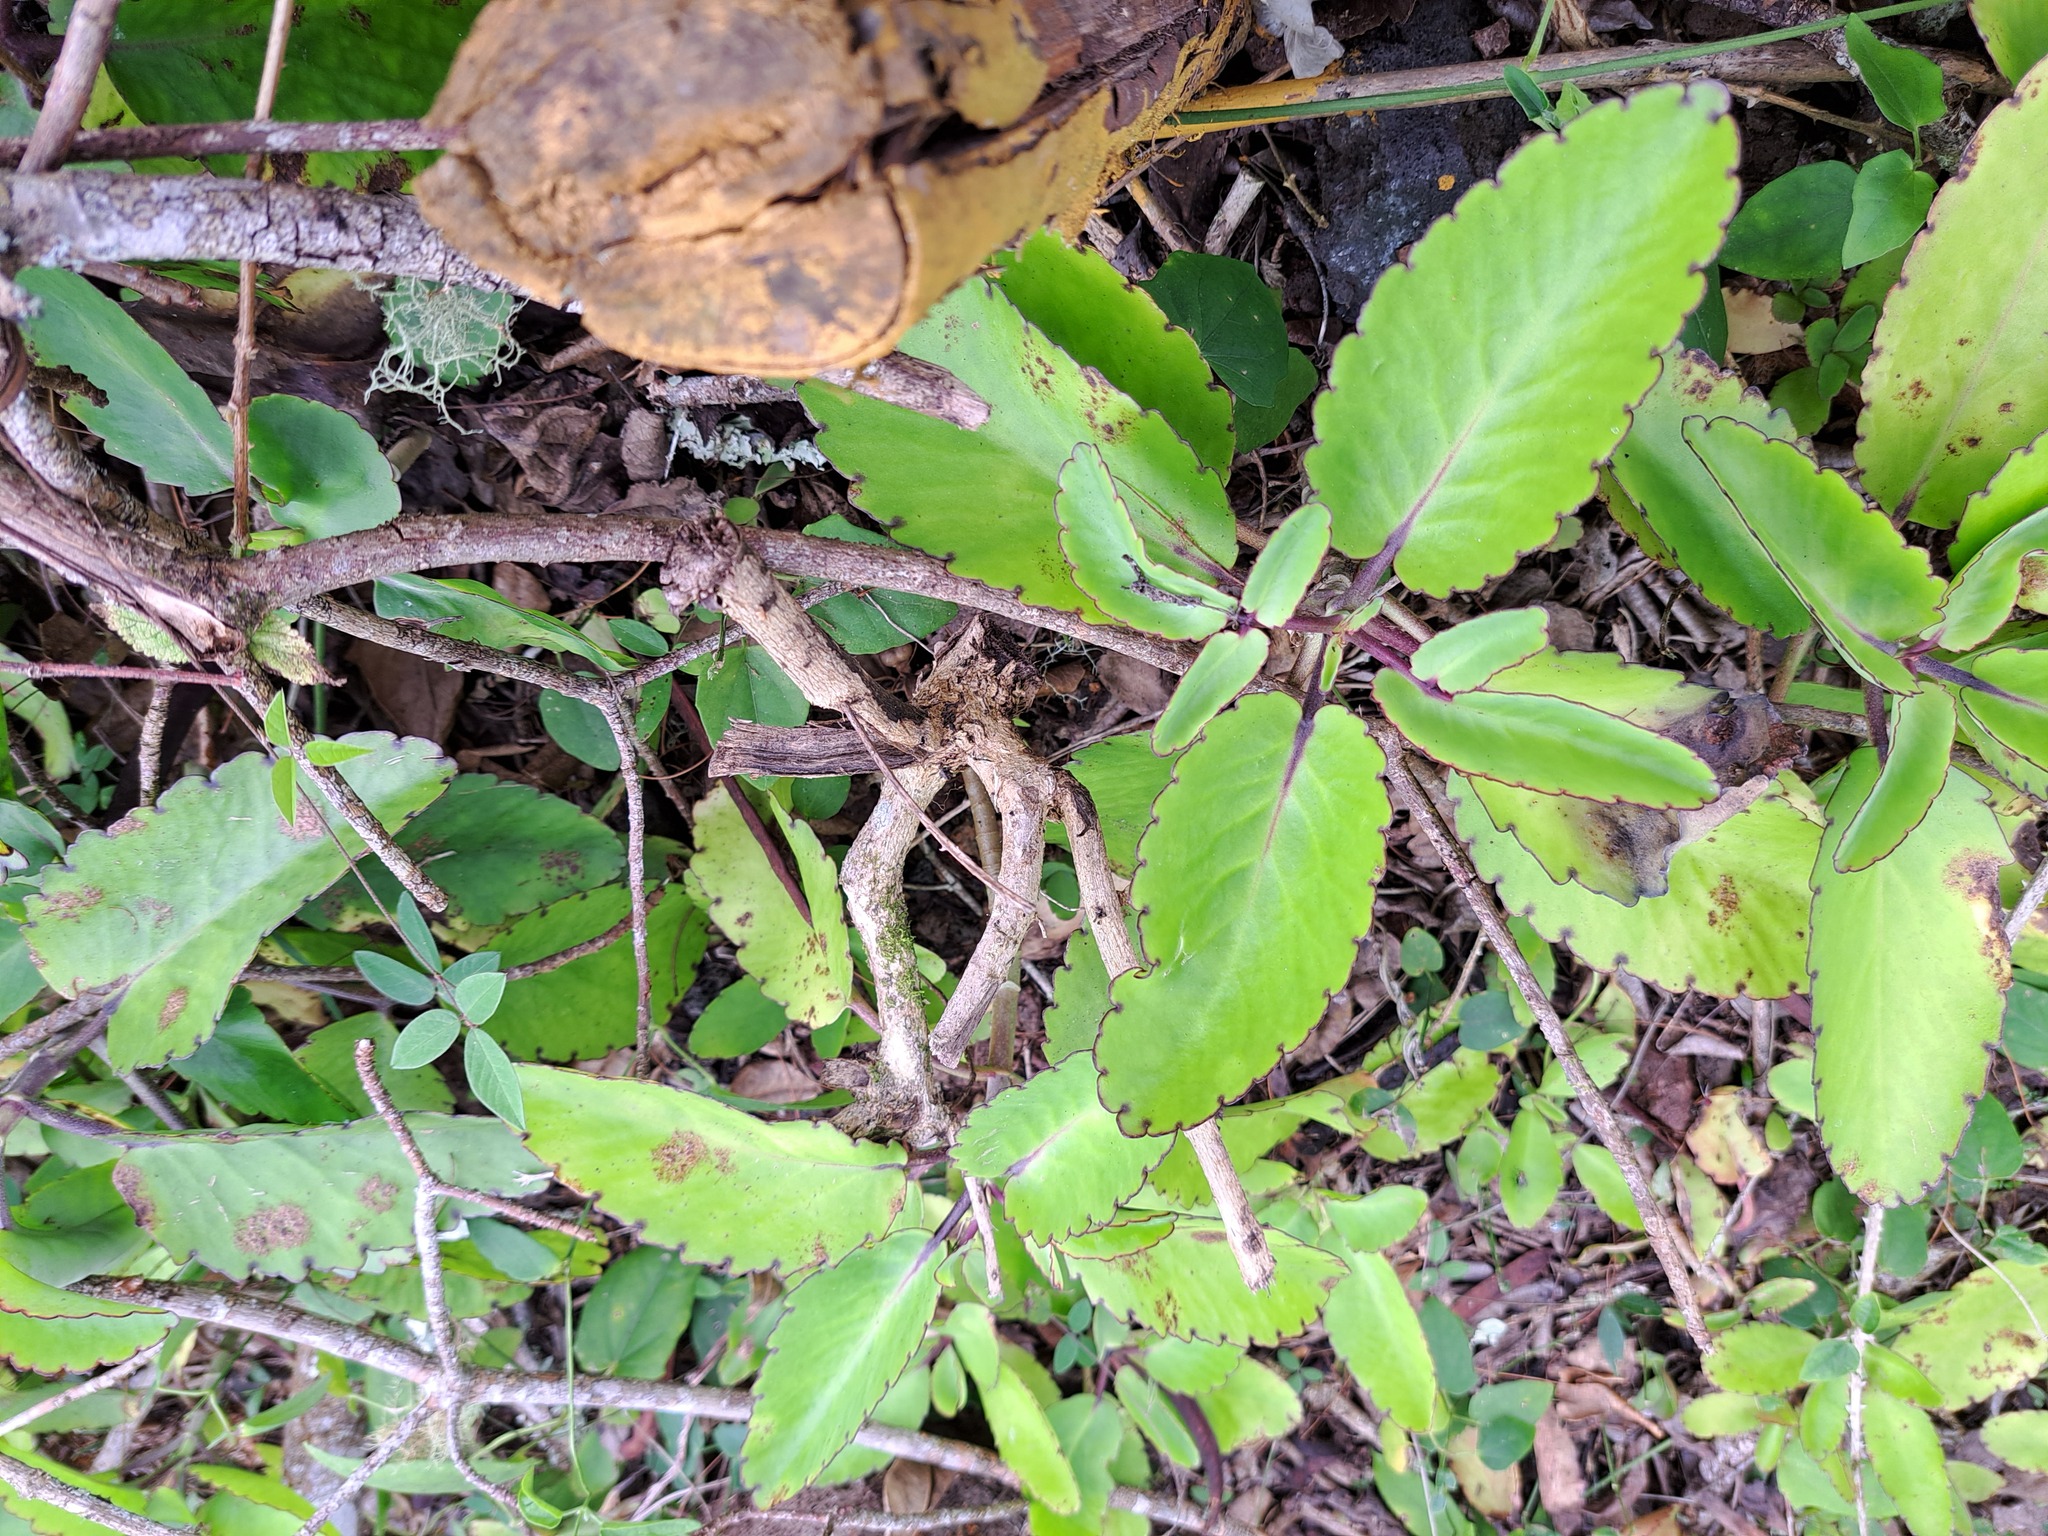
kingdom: Plantae
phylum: Tracheophyta
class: Magnoliopsida
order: Lamiales
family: Acanthaceae
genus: Thunbergia
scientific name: Thunbergia fragrans
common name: Whitelady
